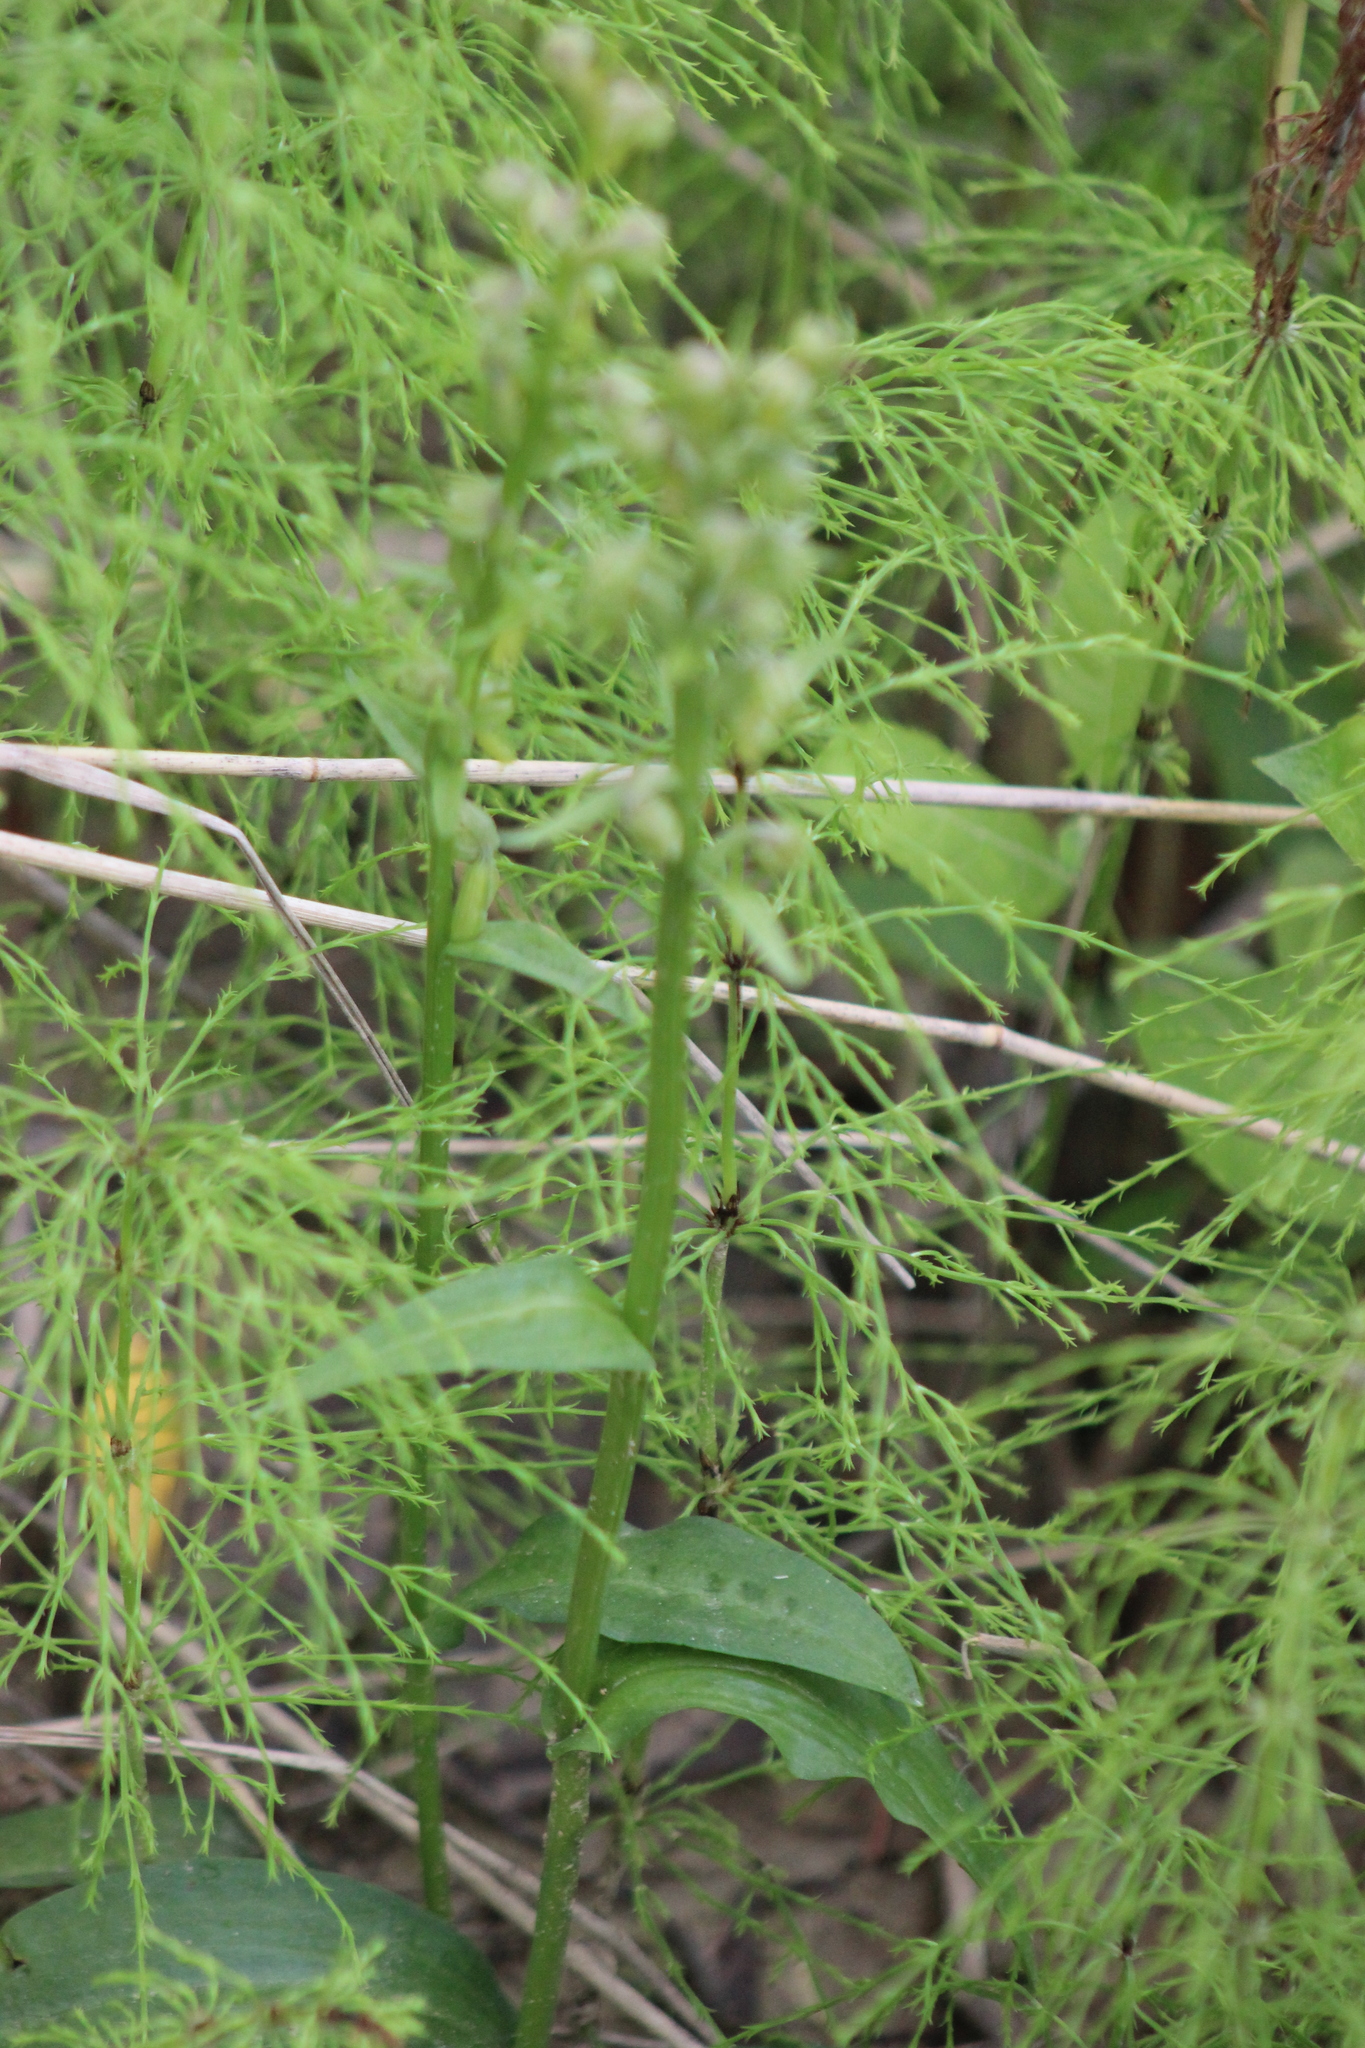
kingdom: Plantae
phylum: Tracheophyta
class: Liliopsida
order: Asparagales
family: Orchidaceae
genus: Dactylorhiza
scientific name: Dactylorhiza viridis
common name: Longbract frog orchid
